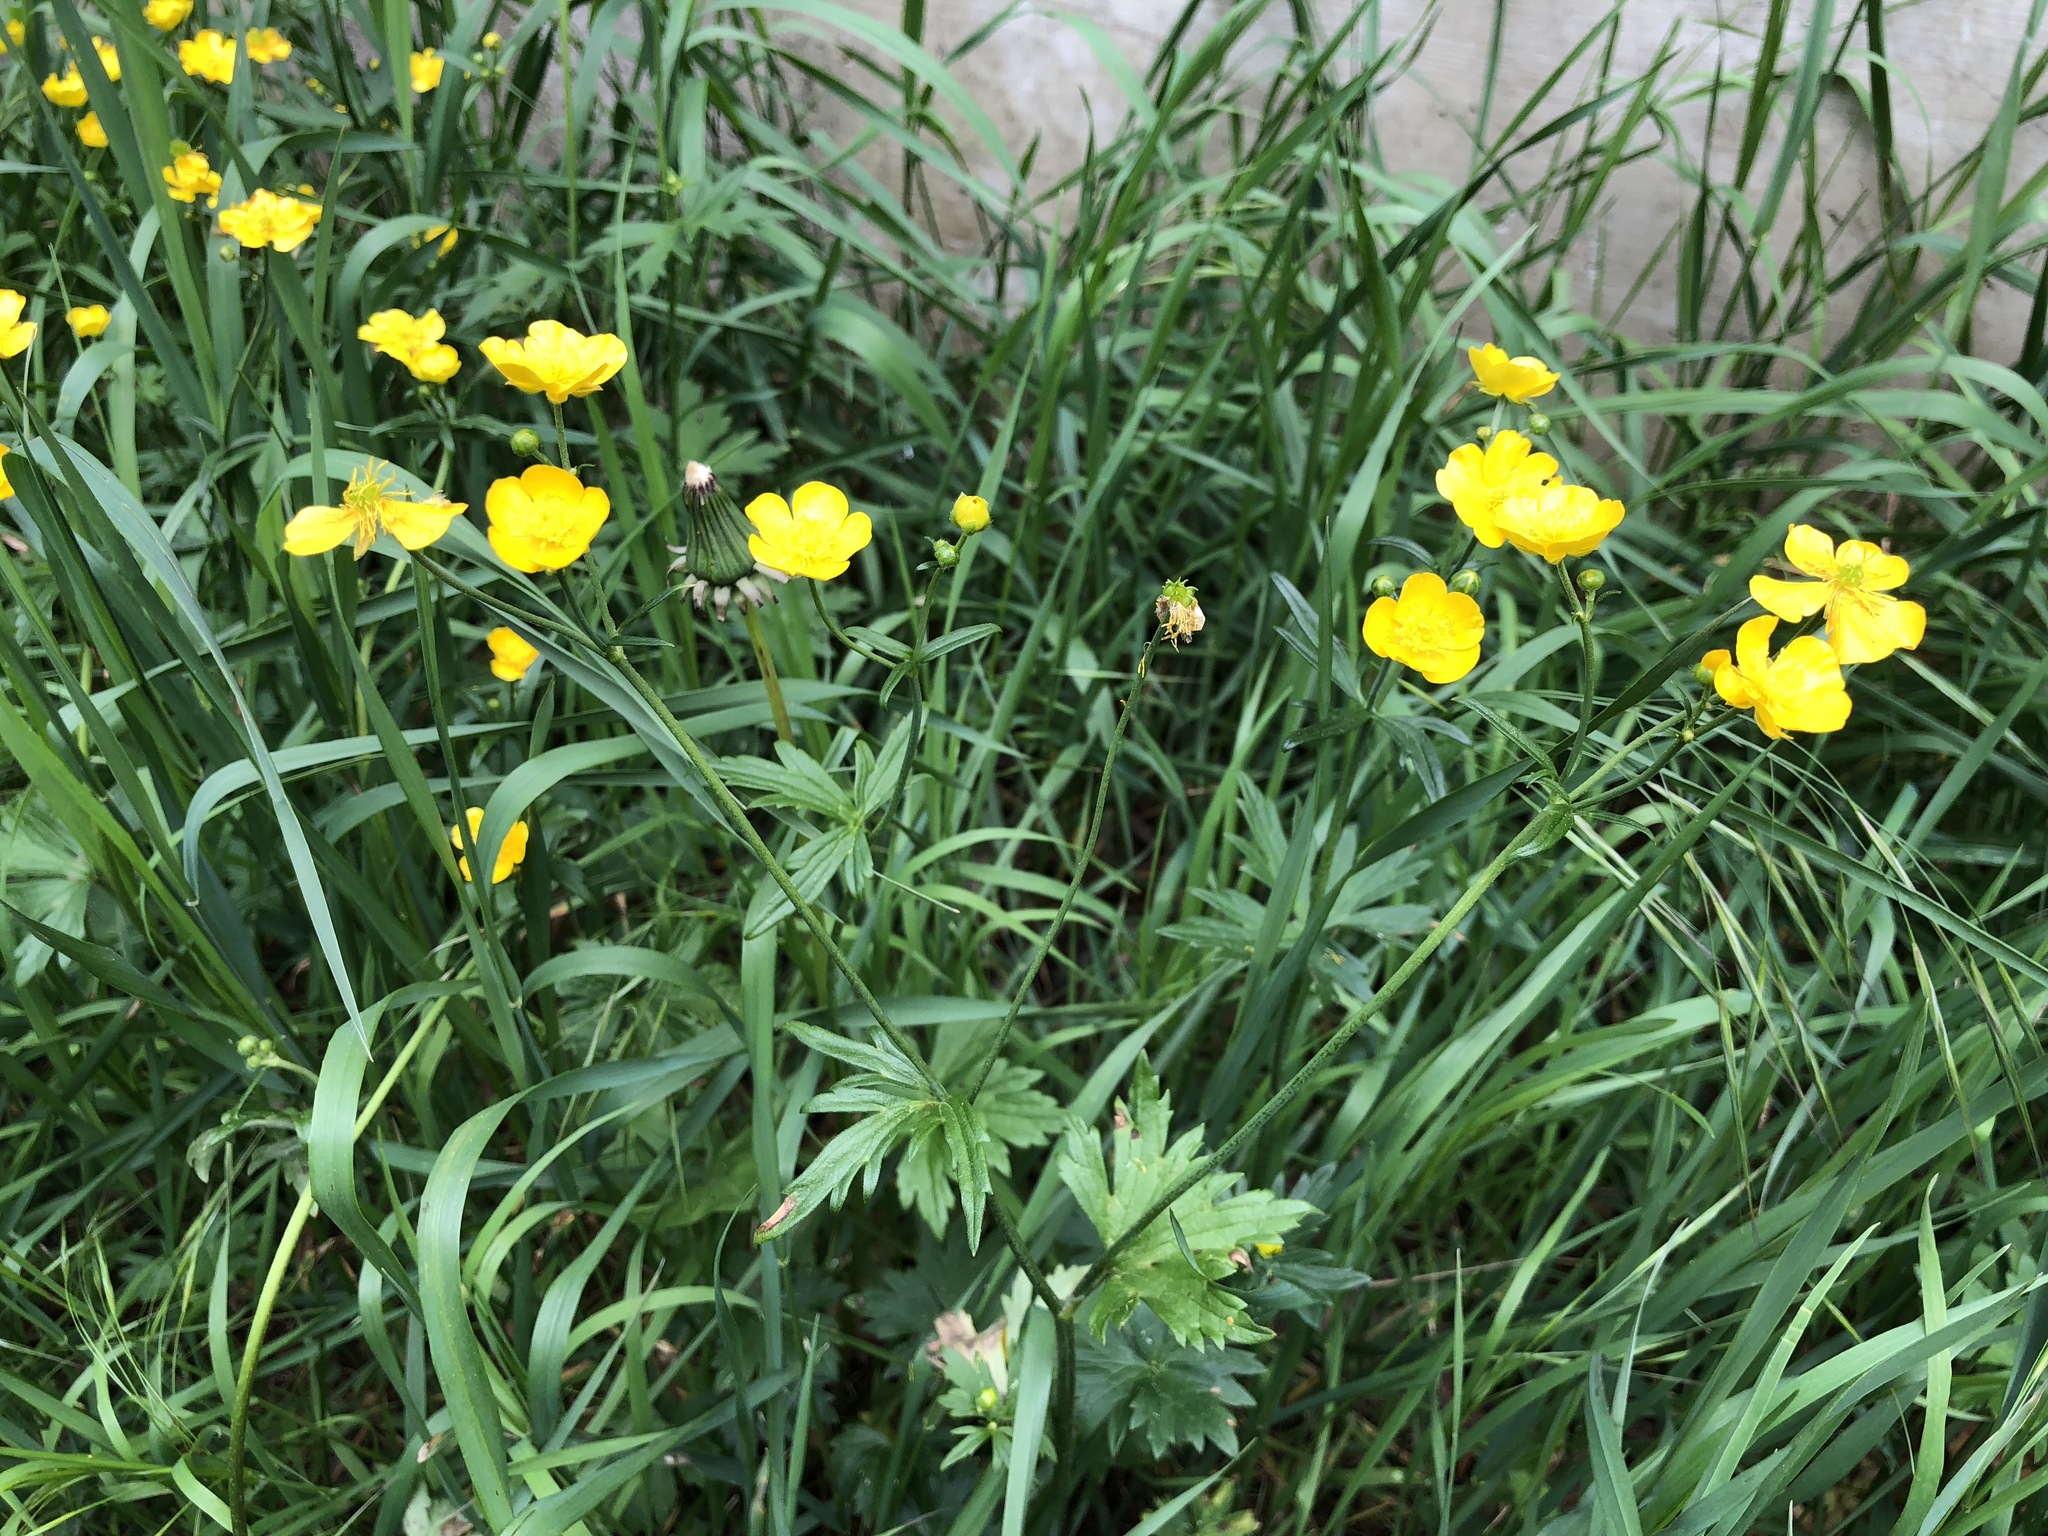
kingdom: Plantae
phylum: Tracheophyta
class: Magnoliopsida
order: Ranunculales
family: Ranunculaceae
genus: Ranunculus
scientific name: Ranunculus acris
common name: Meadow buttercup
